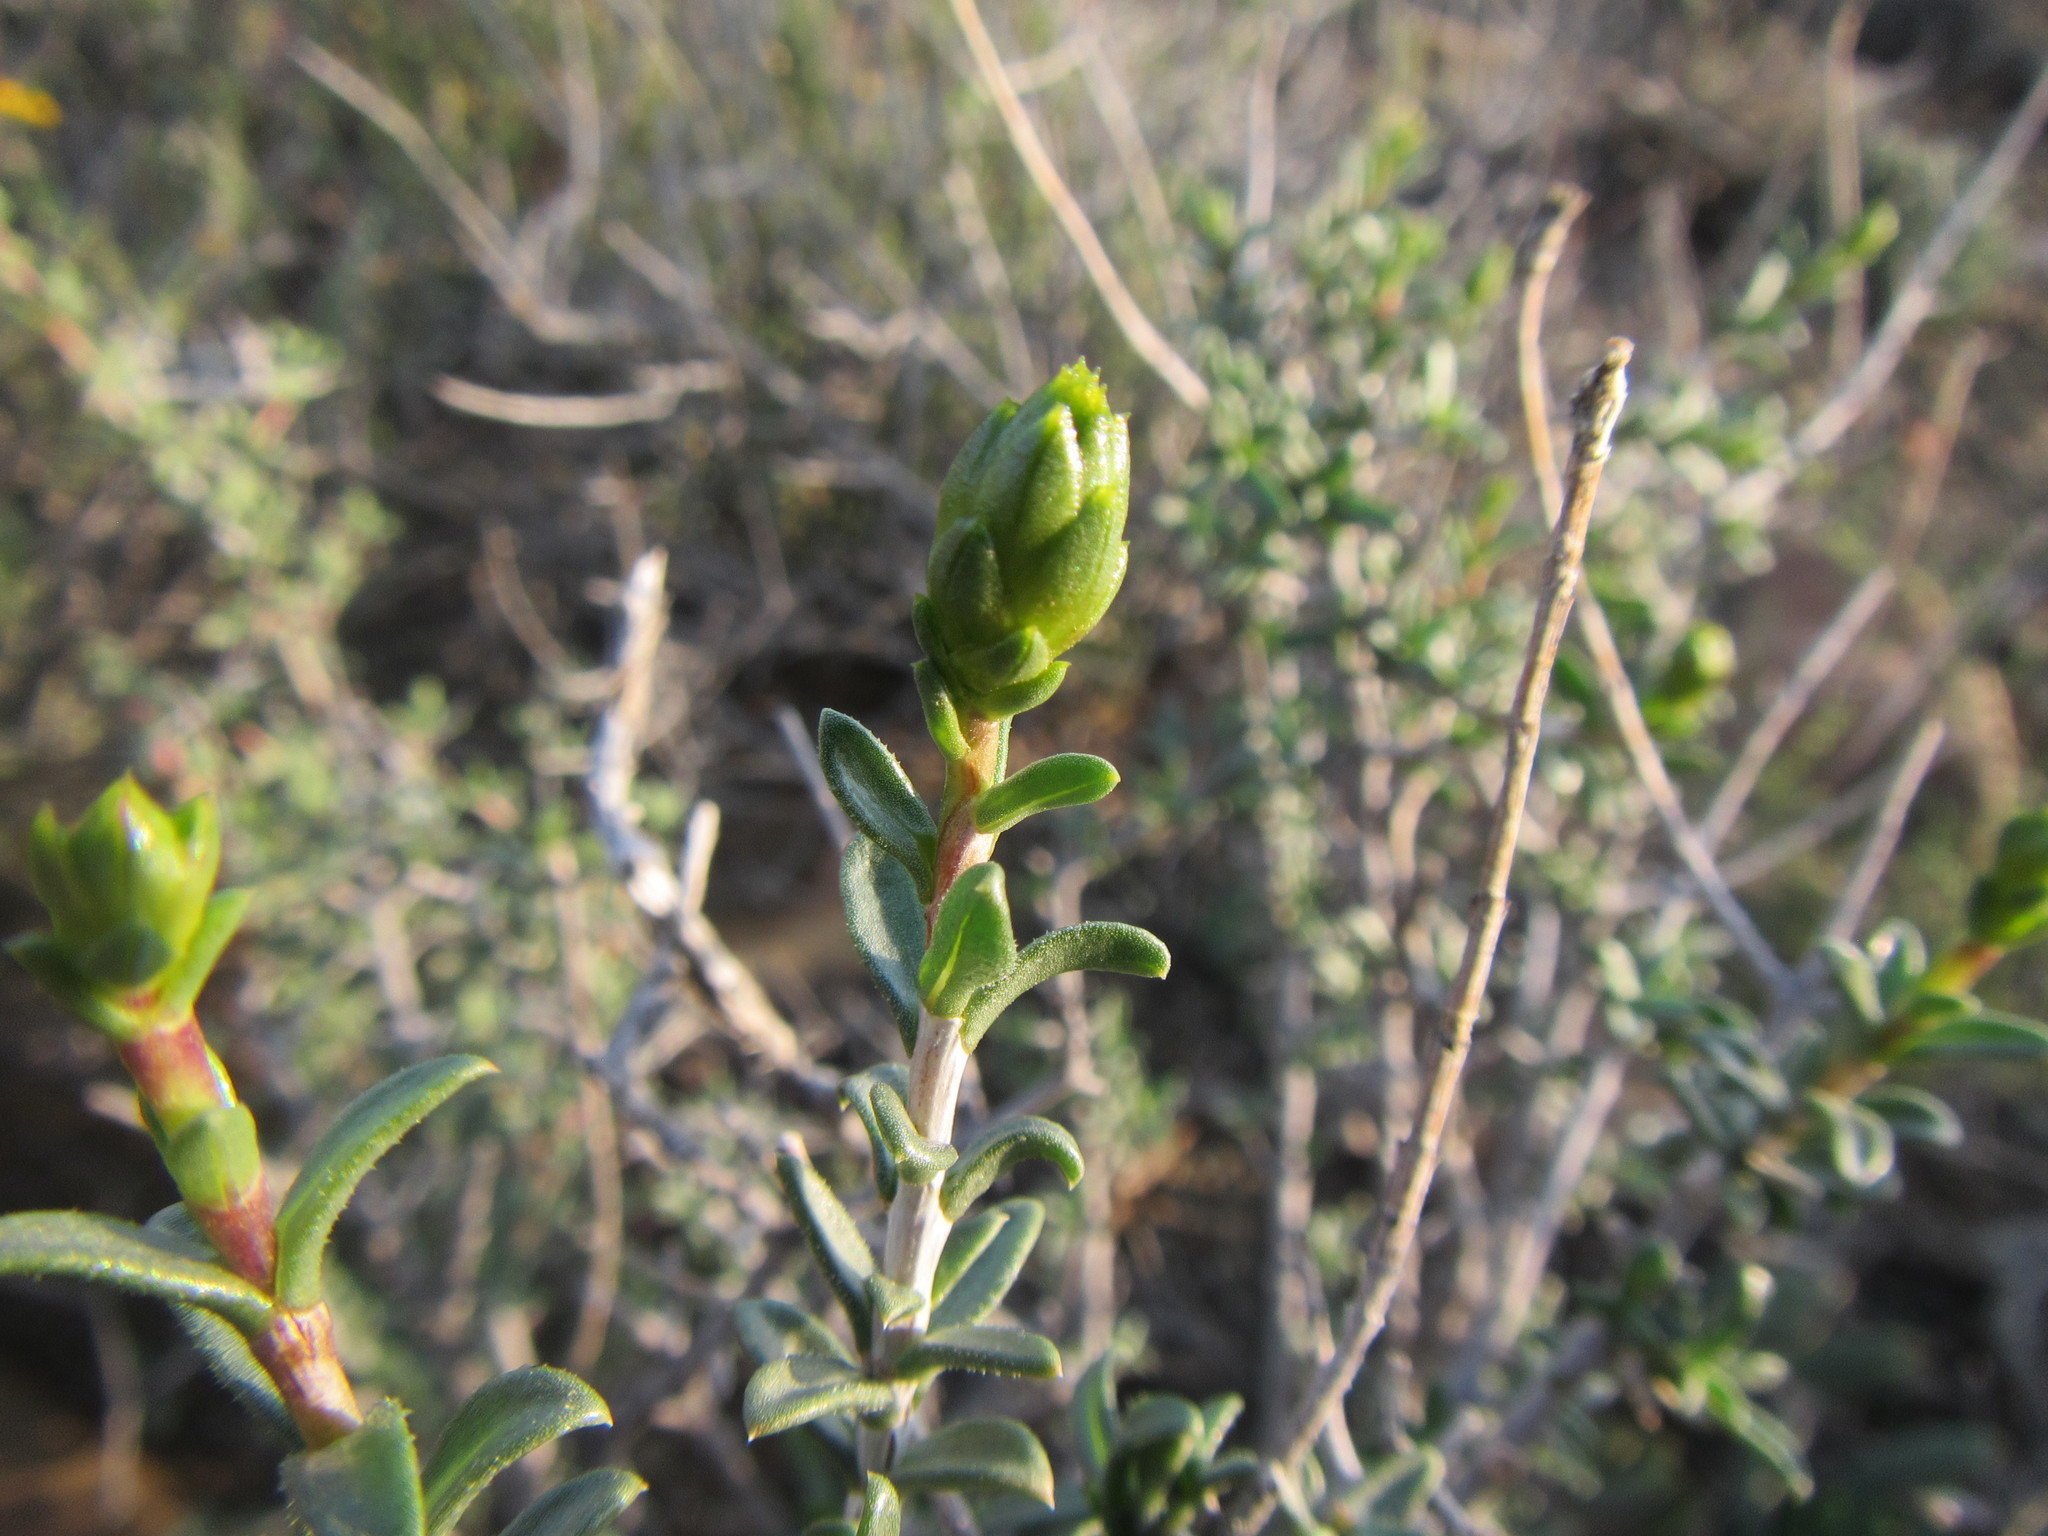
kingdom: Plantae
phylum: Tracheophyta
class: Magnoliopsida
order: Asterales
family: Asteraceae
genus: Pteronia
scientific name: Pteronia viscosa
